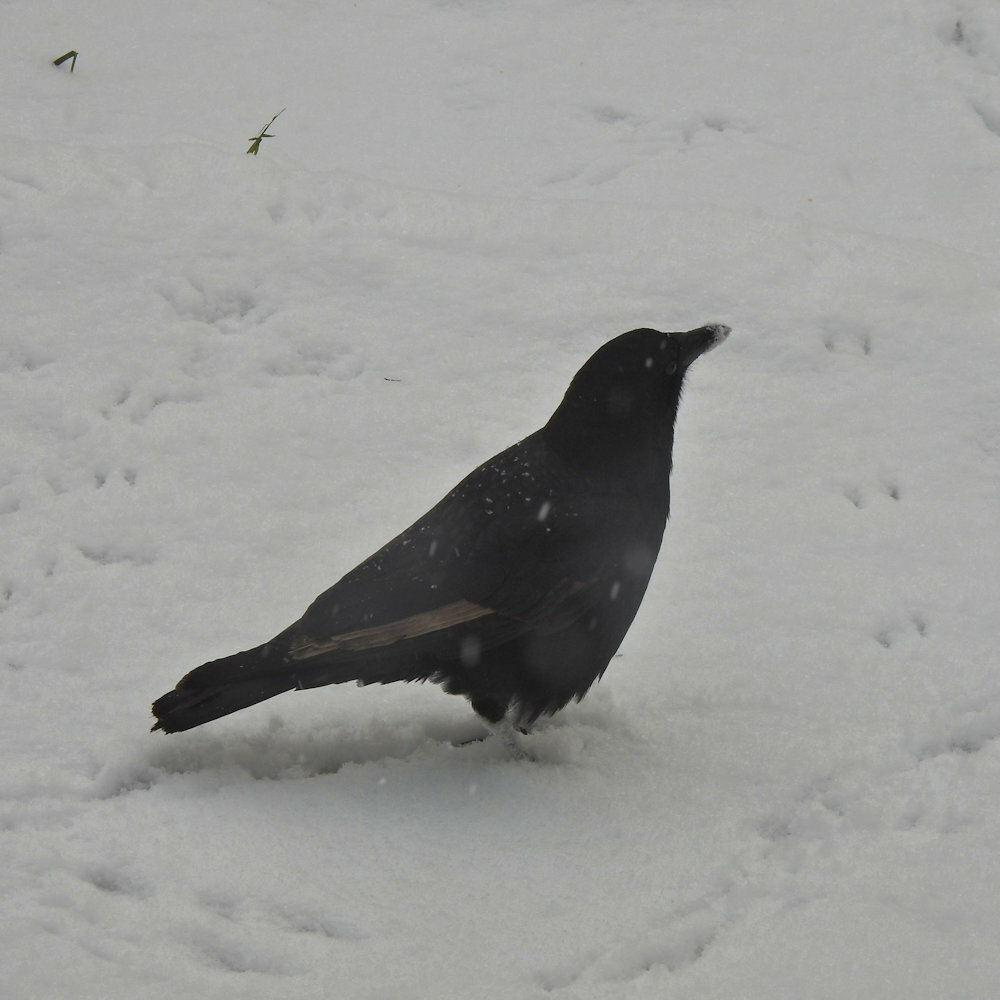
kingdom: Animalia
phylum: Chordata
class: Aves
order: Passeriformes
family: Corvidae
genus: Corvus
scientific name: Corvus brachyrhynchos
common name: American crow
